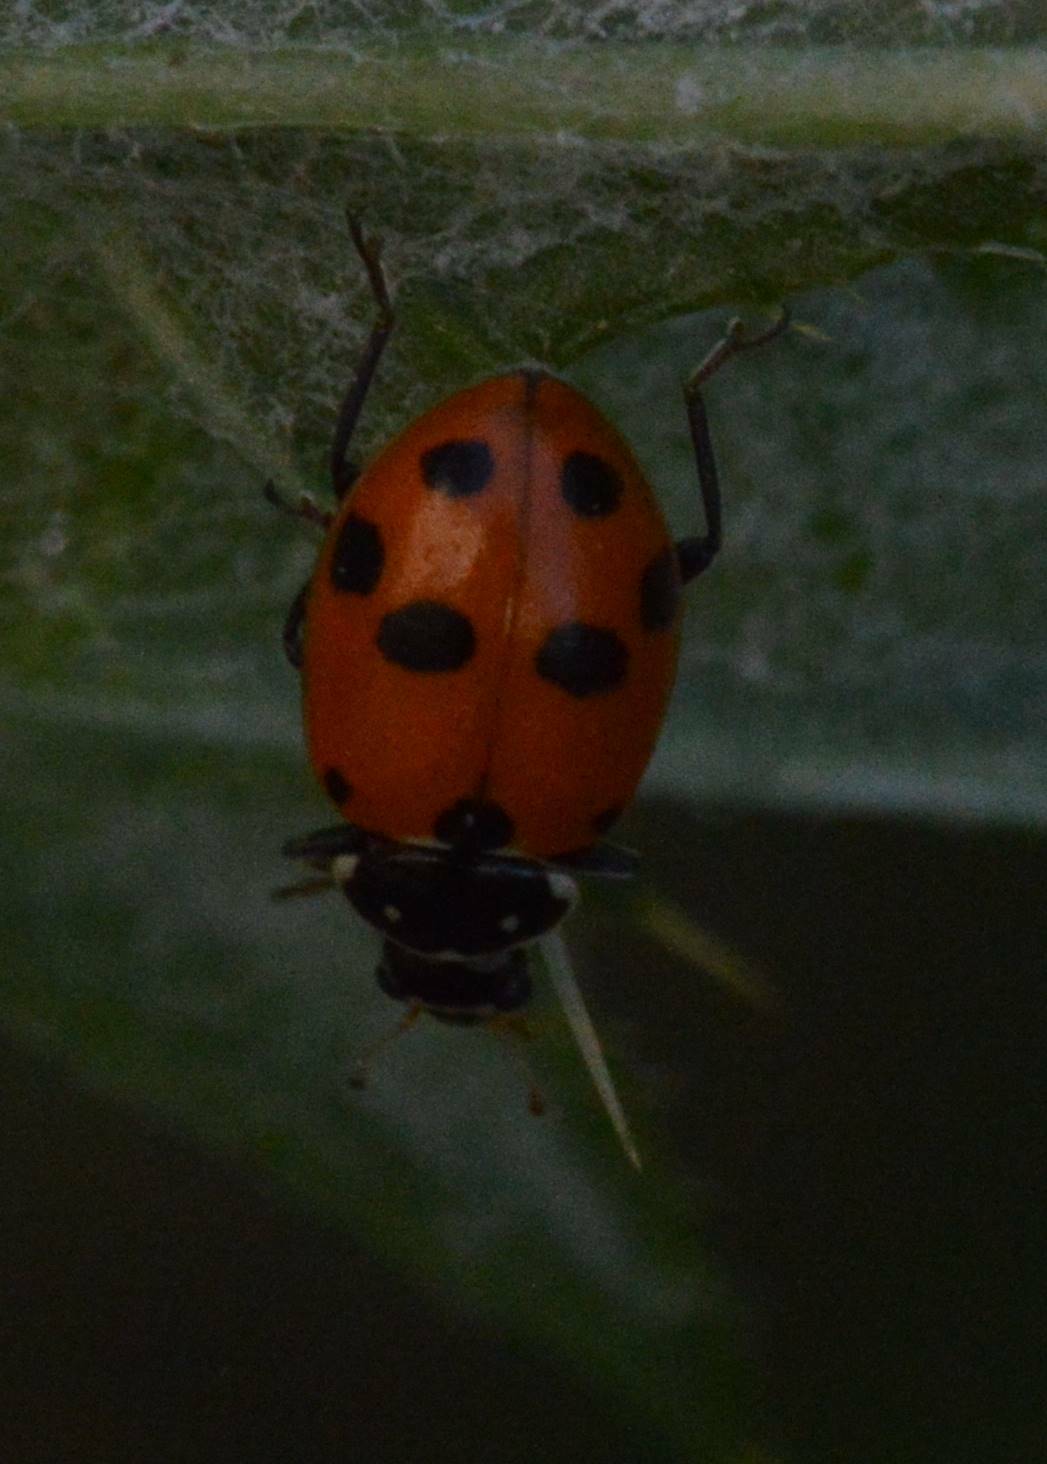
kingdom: Animalia
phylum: Arthropoda
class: Insecta
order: Coleoptera
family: Coccinellidae
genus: Hippodamia
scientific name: Hippodamia variegata
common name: Ladybird beetle
